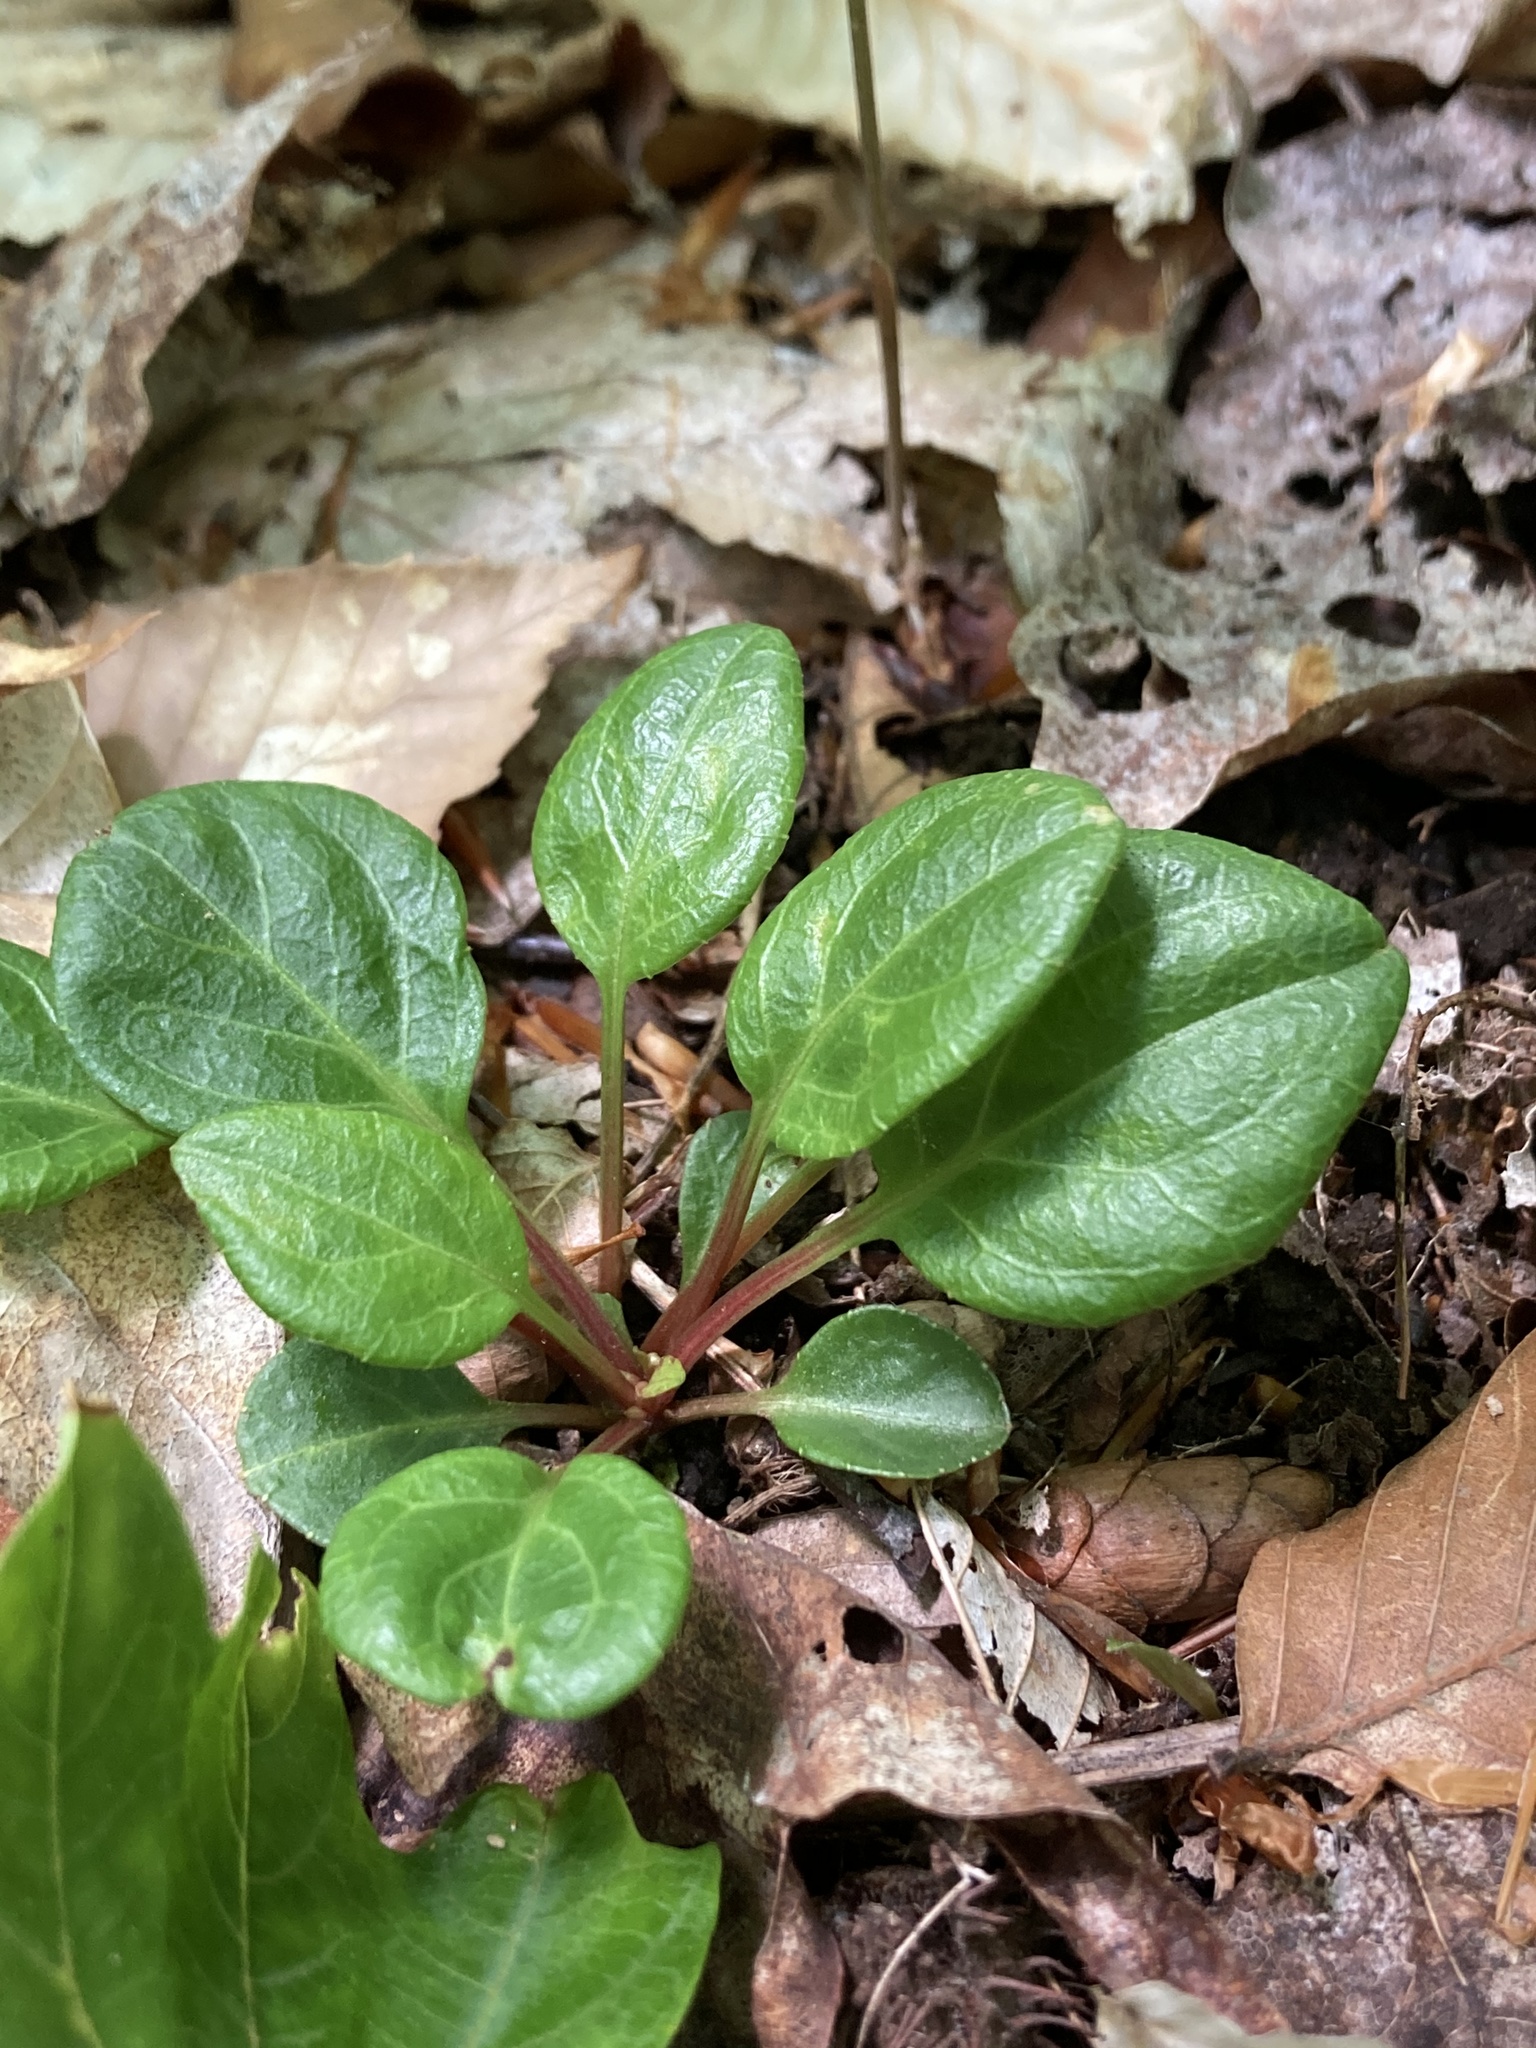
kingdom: Plantae
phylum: Tracheophyta
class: Magnoliopsida
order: Ericales
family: Ericaceae
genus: Pyrola
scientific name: Pyrola chlorantha
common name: Green wintergreen
